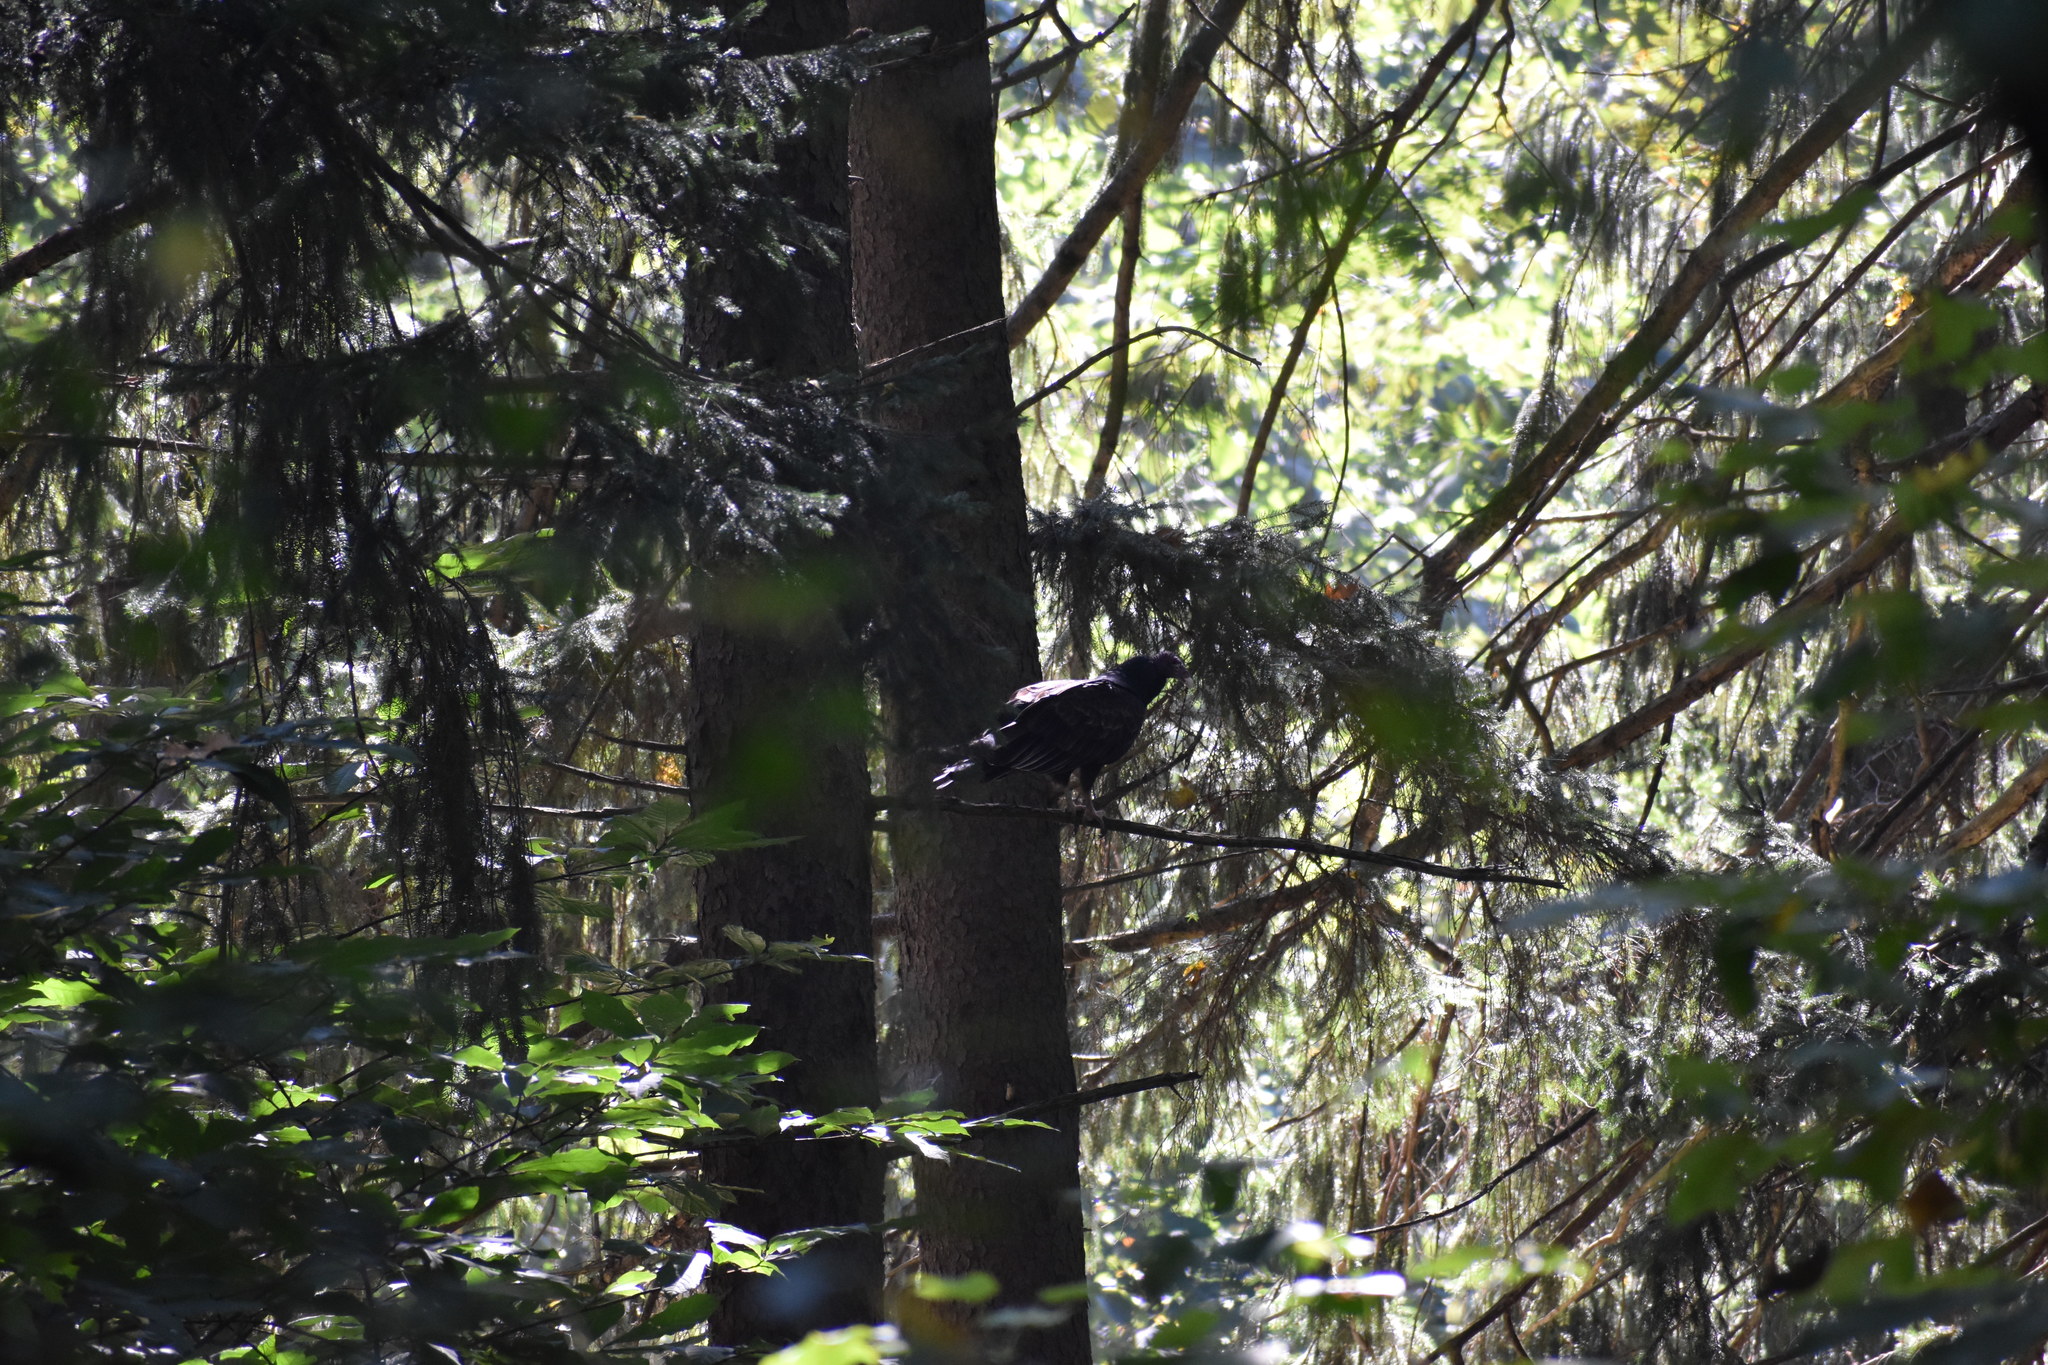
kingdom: Animalia
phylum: Chordata
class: Aves
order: Accipitriformes
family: Cathartidae
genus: Cathartes
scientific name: Cathartes aura
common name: Turkey vulture
